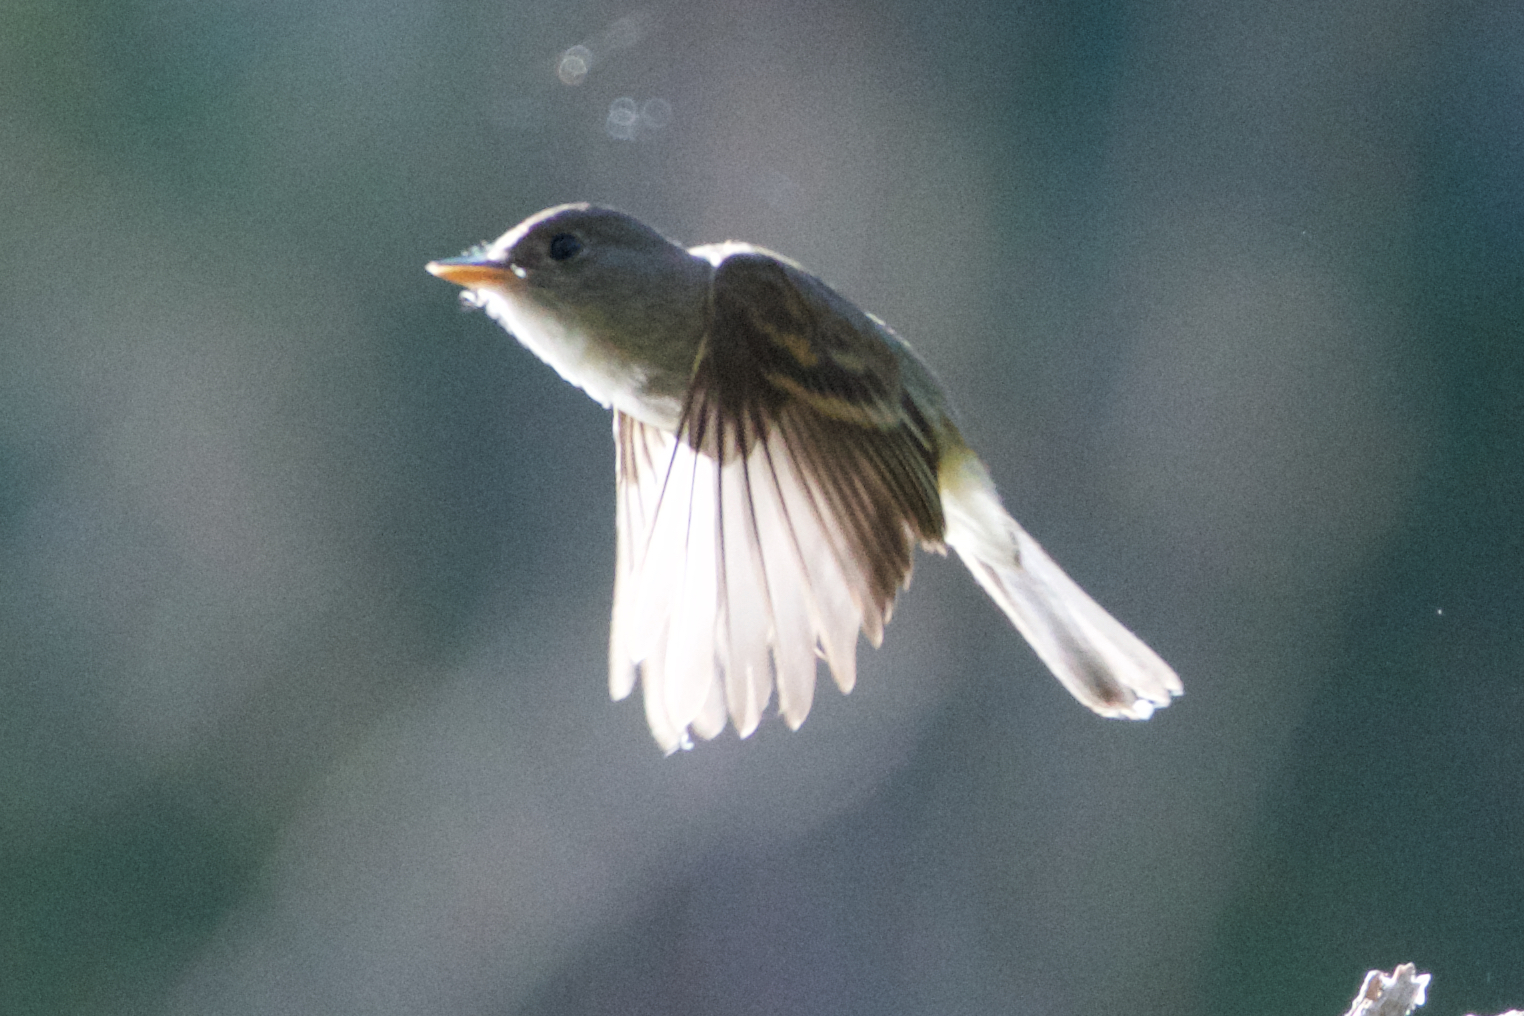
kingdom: Animalia
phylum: Chordata
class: Aves
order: Passeriformes
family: Tyrannidae
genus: Empidonax
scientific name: Empidonax traillii
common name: Willow flycatcher
